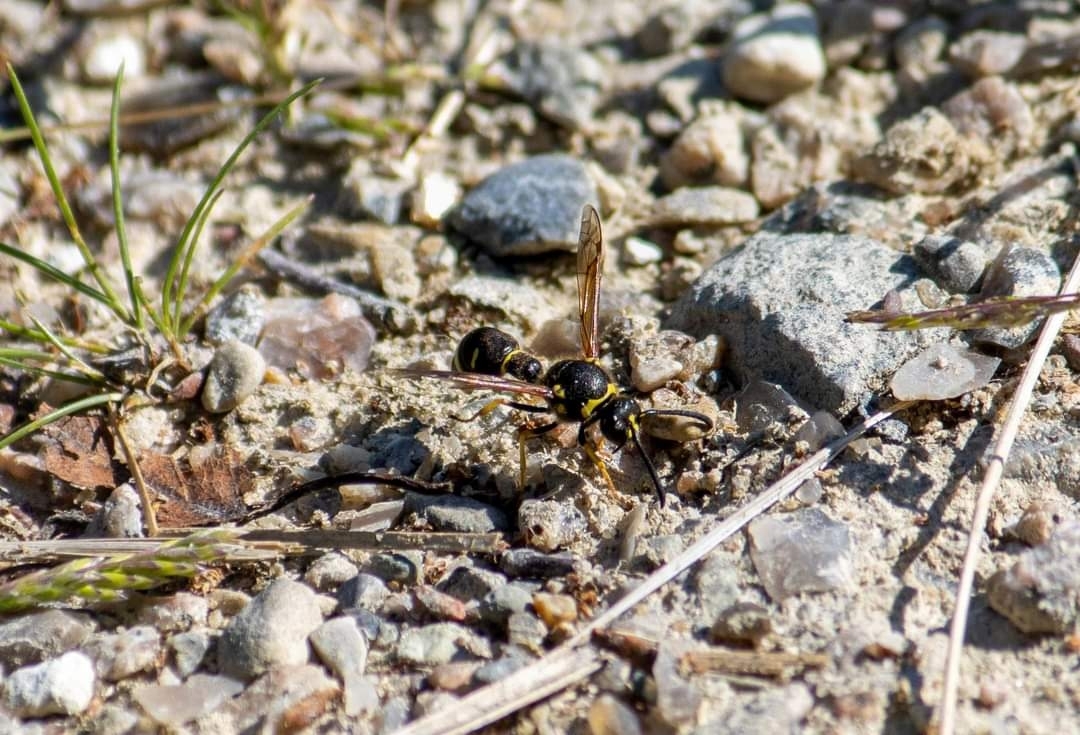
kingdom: Animalia
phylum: Arthropoda
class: Insecta
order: Hymenoptera
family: Vespidae
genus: Eumenes
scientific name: Eumenes
